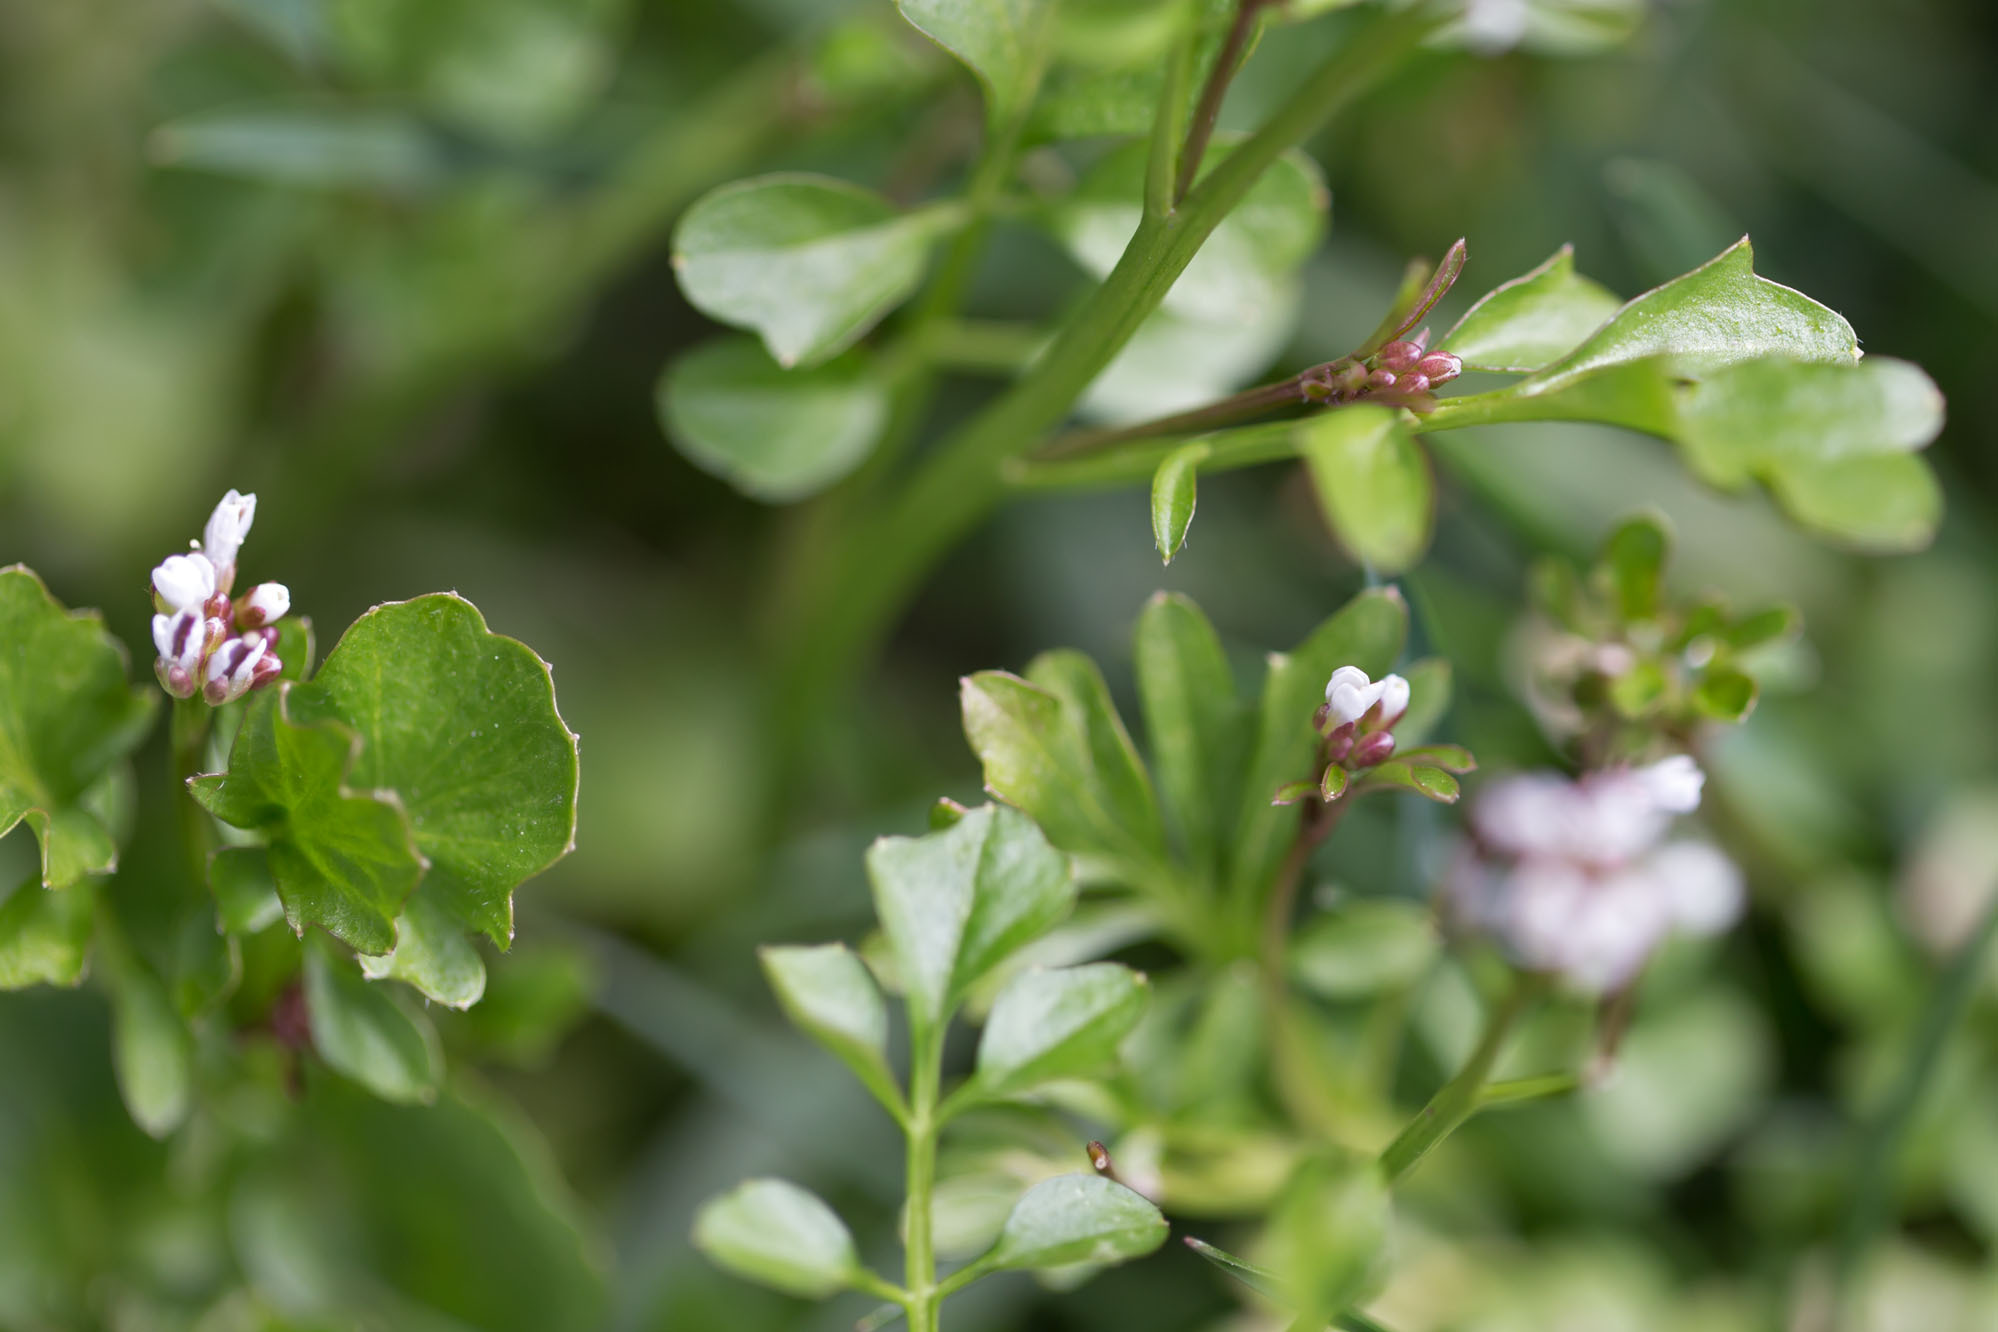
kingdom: Plantae
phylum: Tracheophyta
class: Magnoliopsida
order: Brassicales
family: Brassicaceae
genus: Cardamine
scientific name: Cardamine hirsuta
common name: Hairy bittercress
